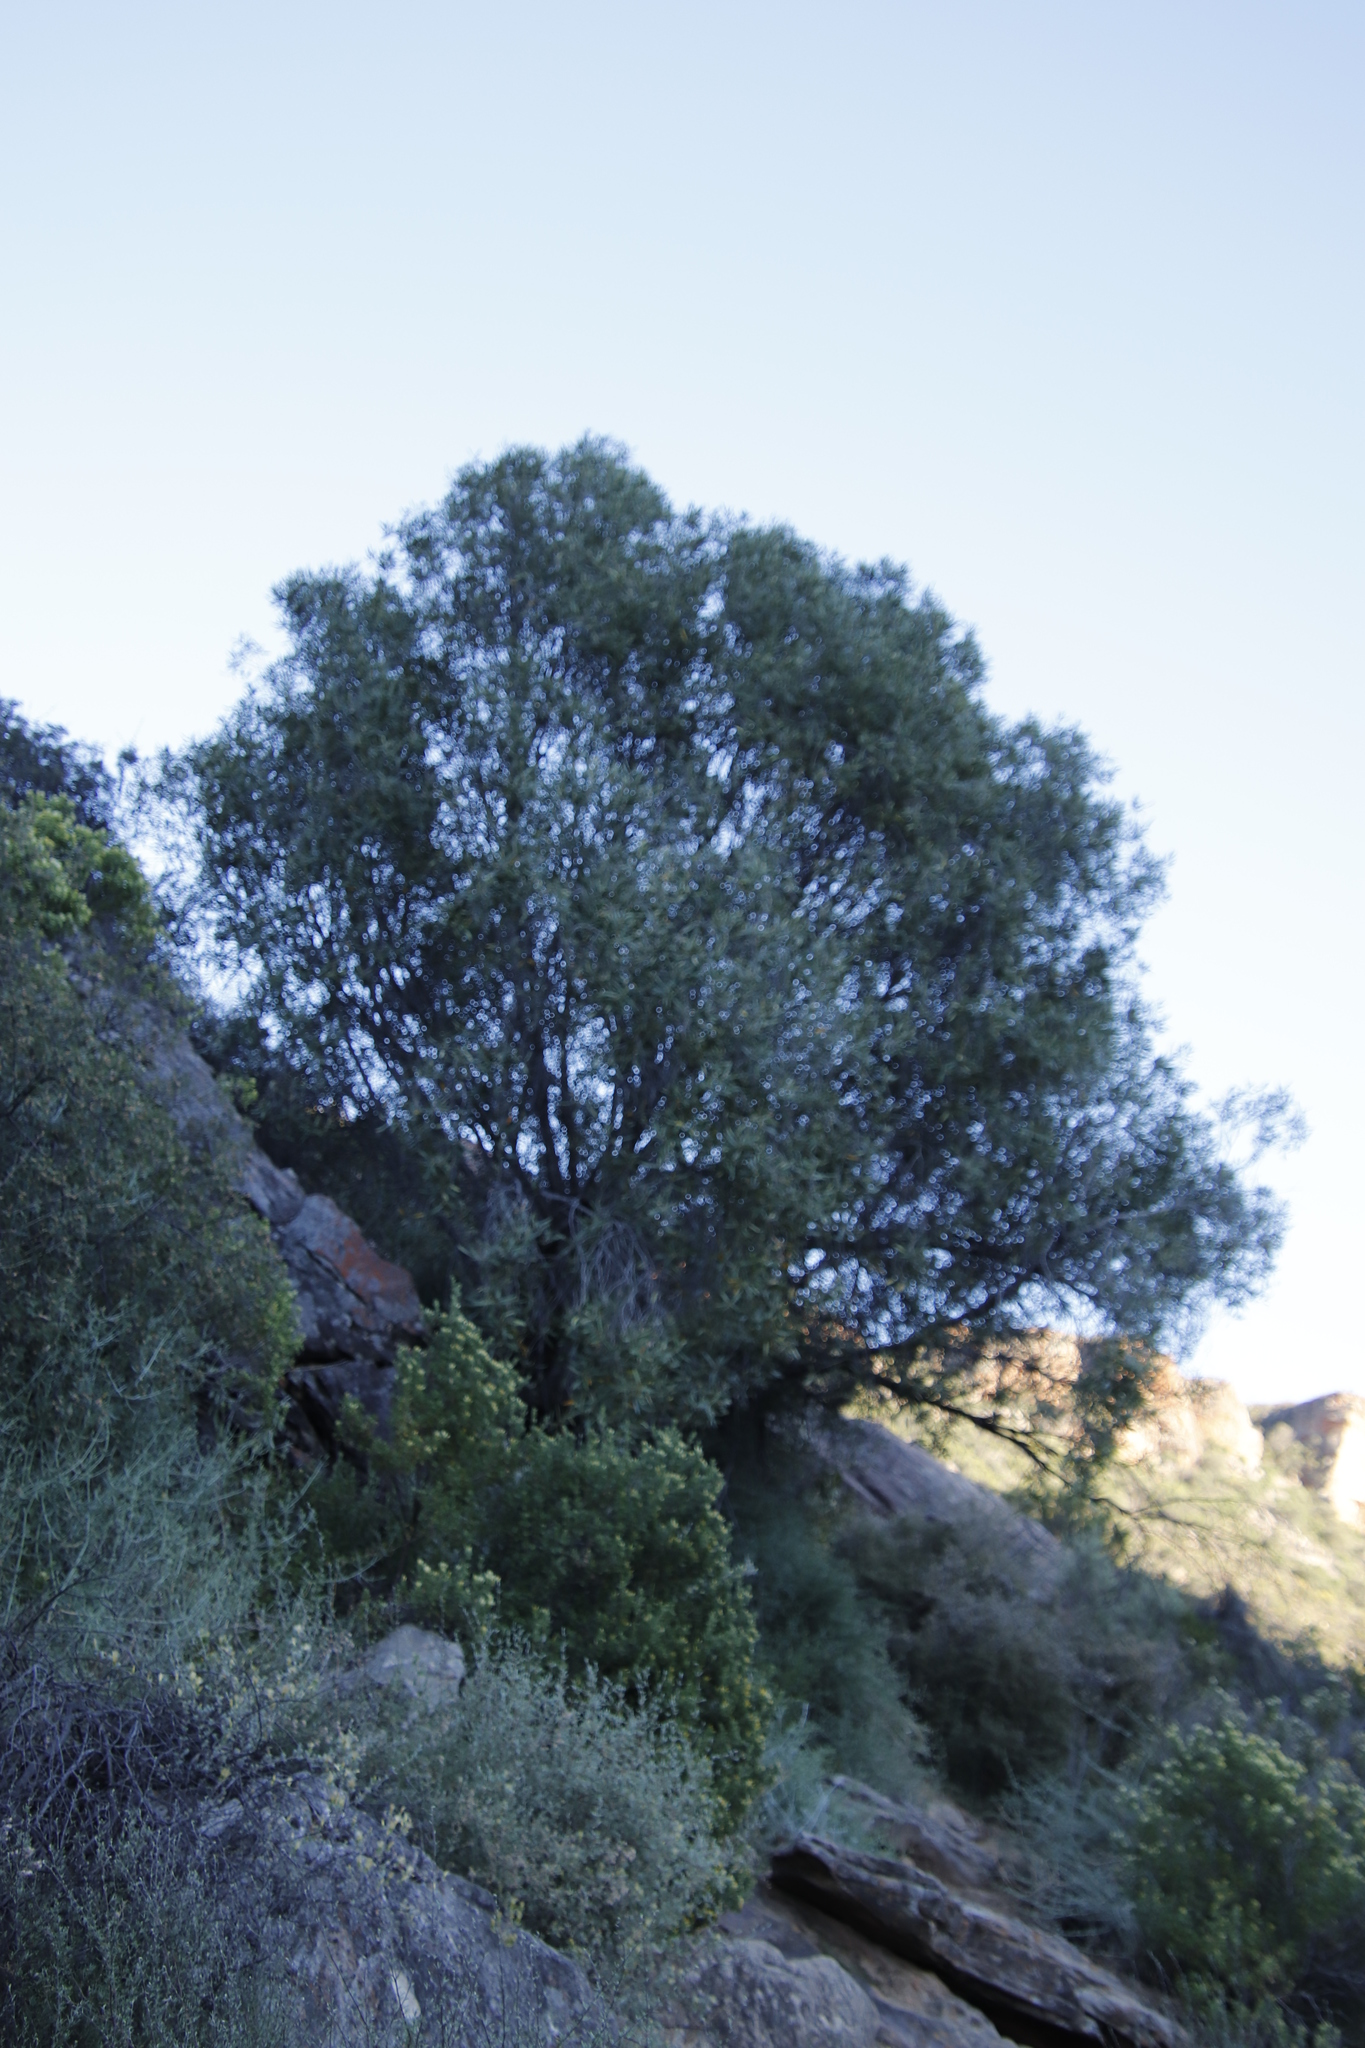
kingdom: Plantae
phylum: Tracheophyta
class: Magnoliopsida
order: Lamiales
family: Oleaceae
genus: Olea
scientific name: Olea europaea
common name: Olive
